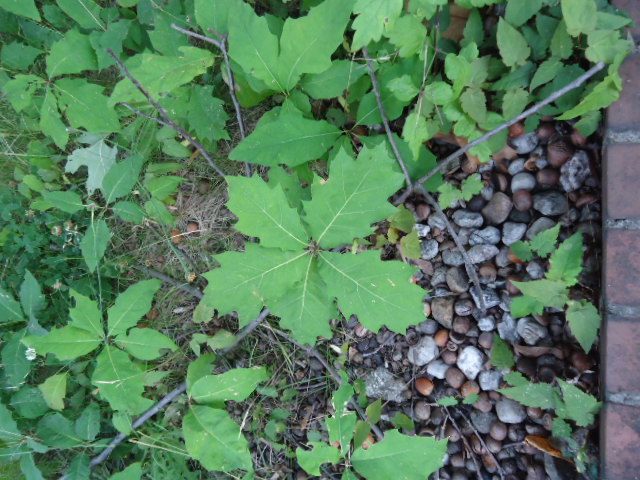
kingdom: Plantae
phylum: Tracheophyta
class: Magnoliopsida
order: Fagales
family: Fagaceae
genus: Quercus
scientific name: Quercus rubra
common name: Red oak
